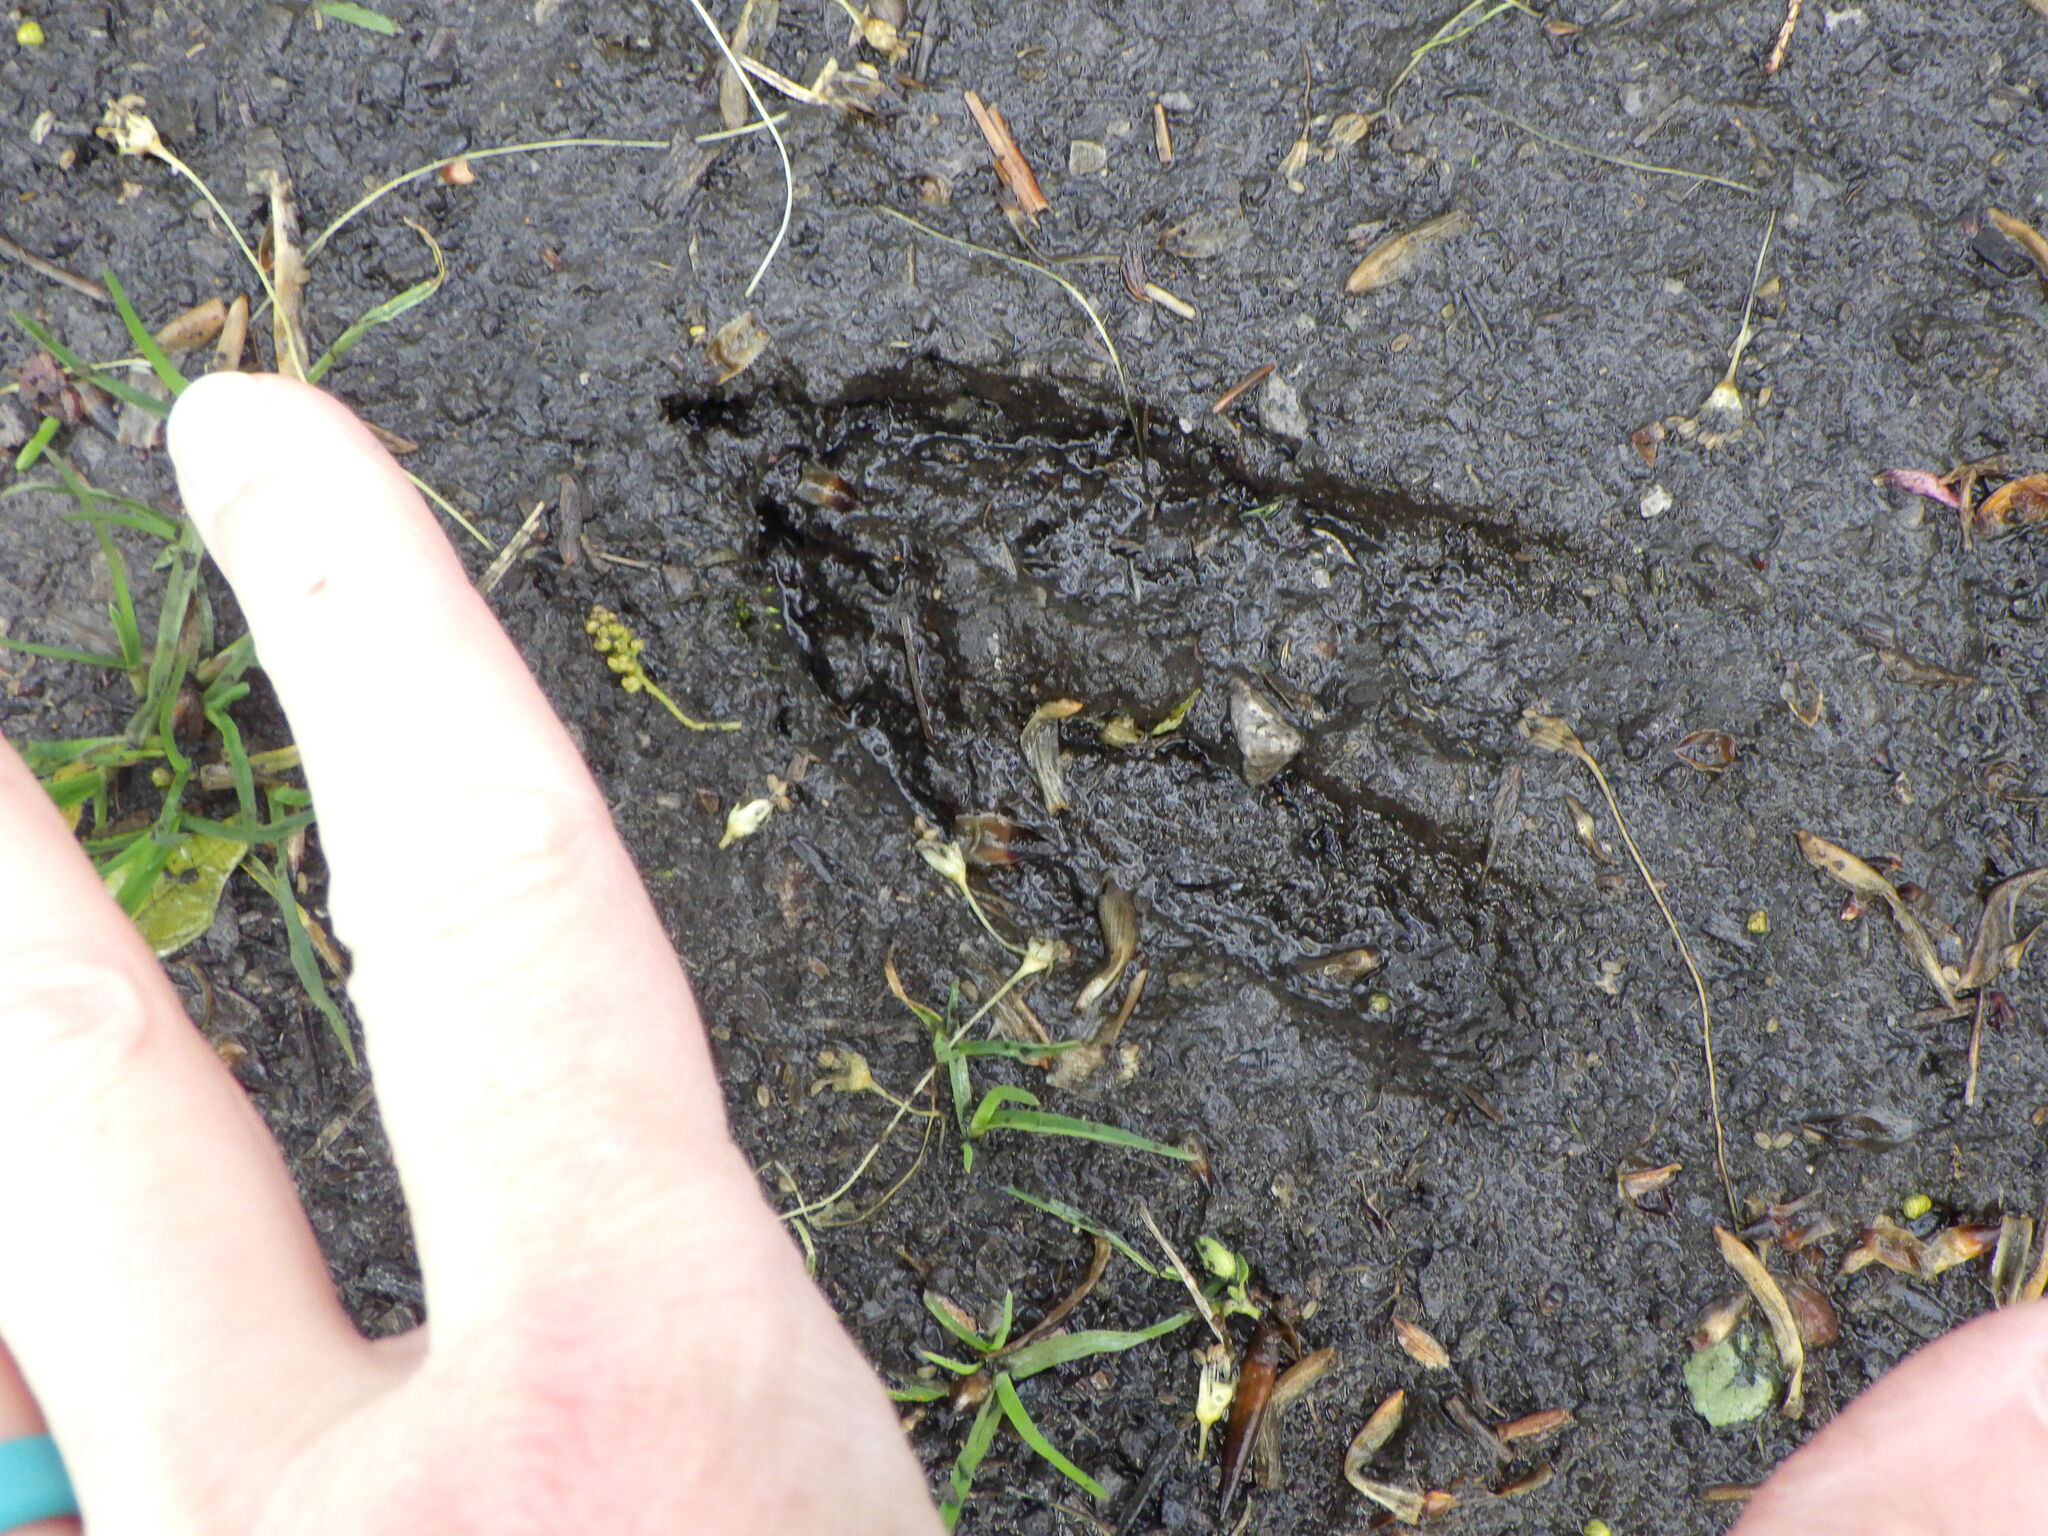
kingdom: Animalia
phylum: Chordata
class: Mammalia
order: Artiodactyla
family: Cervidae
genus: Odocoileus
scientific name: Odocoileus virginianus
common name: White-tailed deer
